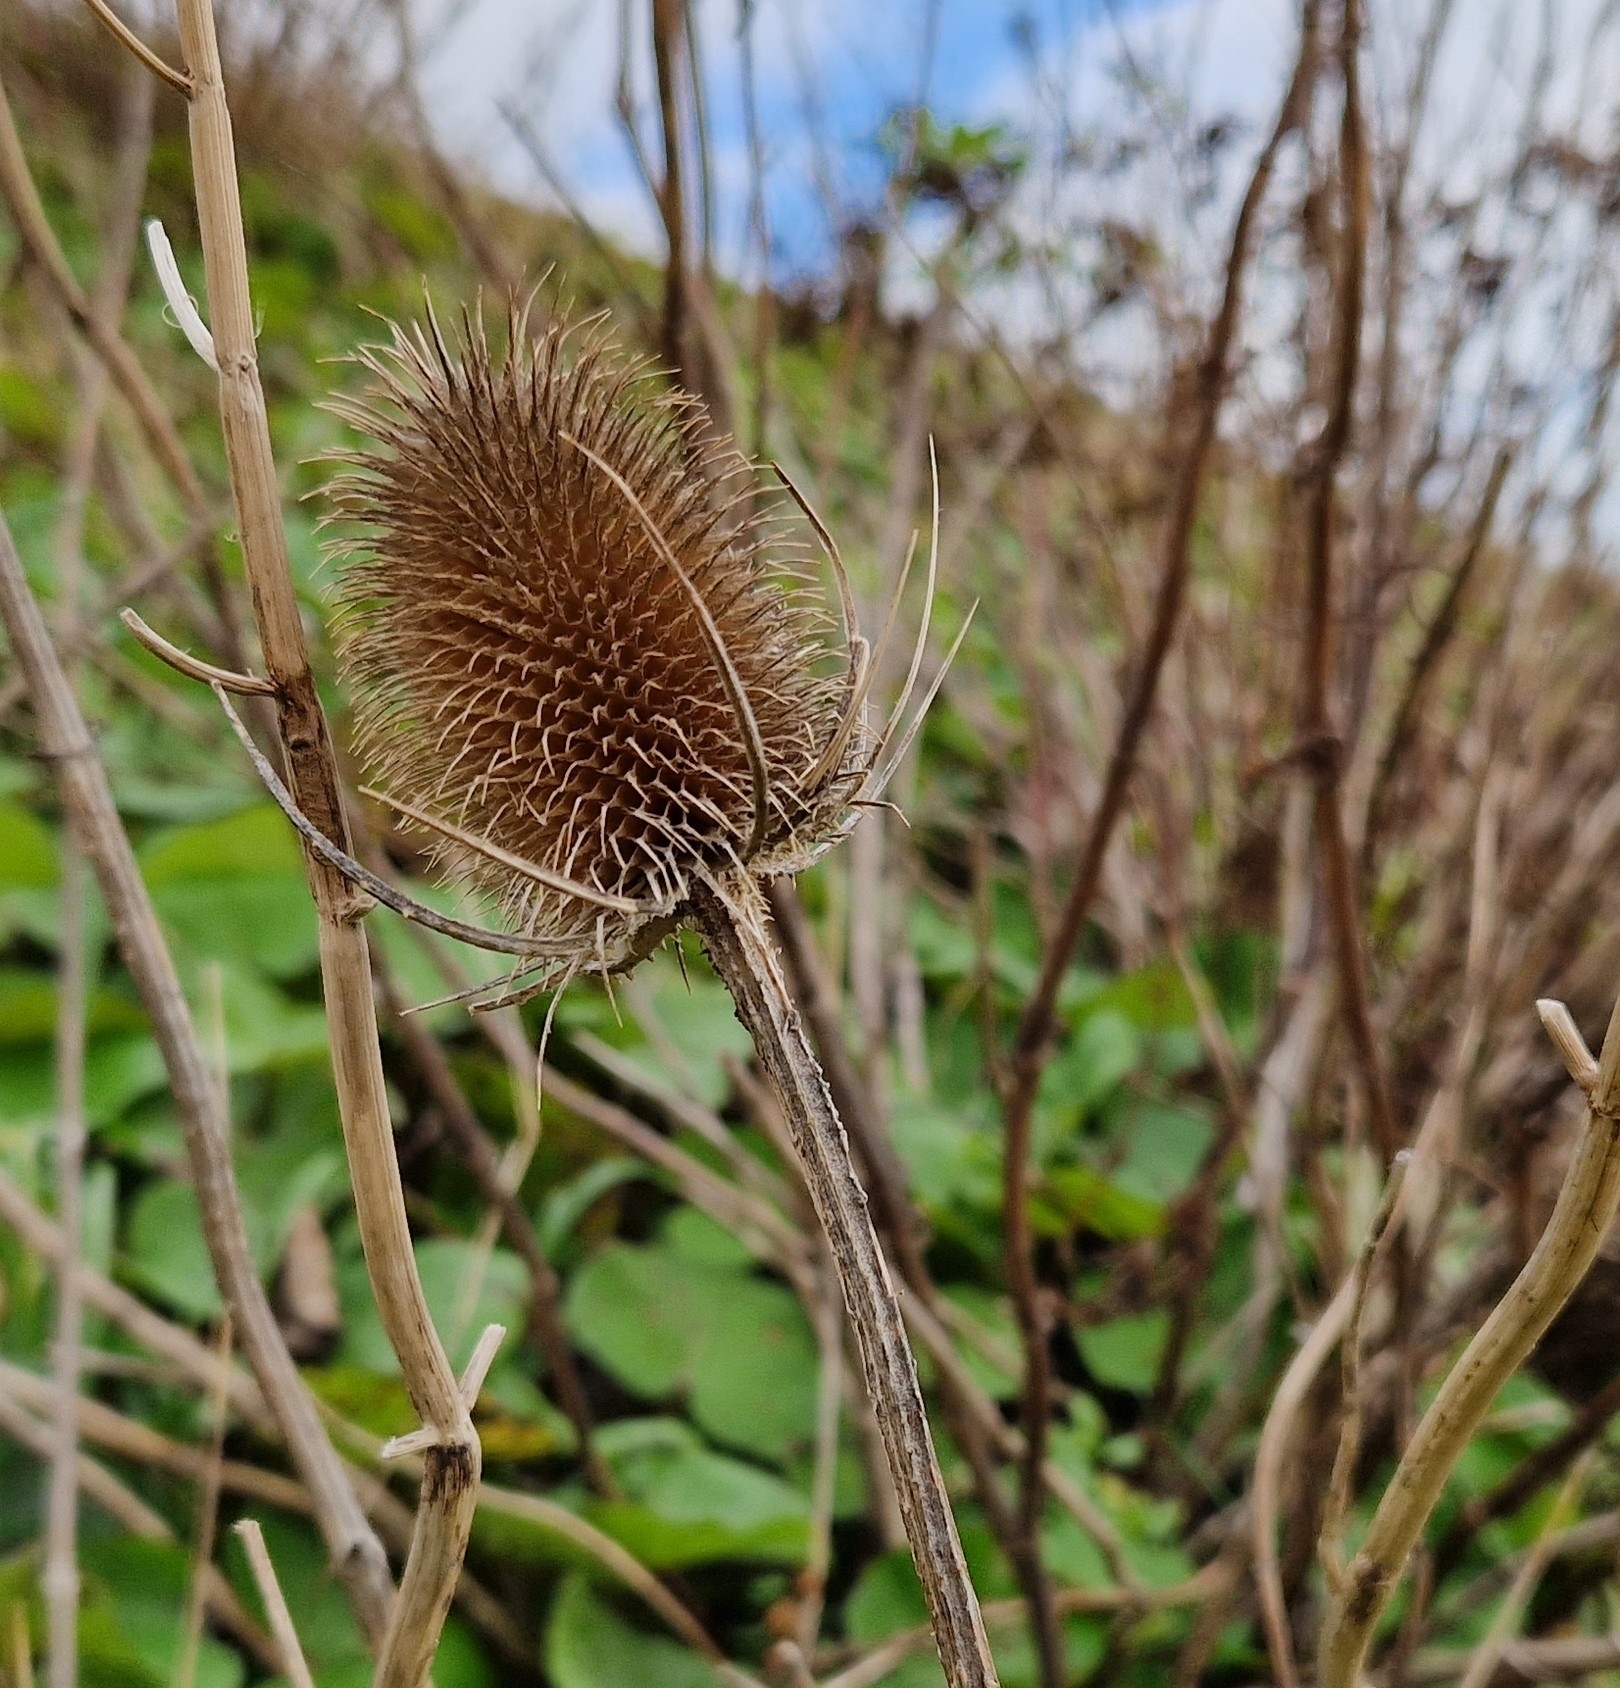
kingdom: Plantae
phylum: Tracheophyta
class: Magnoliopsida
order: Dipsacales
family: Caprifoliaceae
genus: Dipsacus
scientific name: Dipsacus fullonum
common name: Teasel
